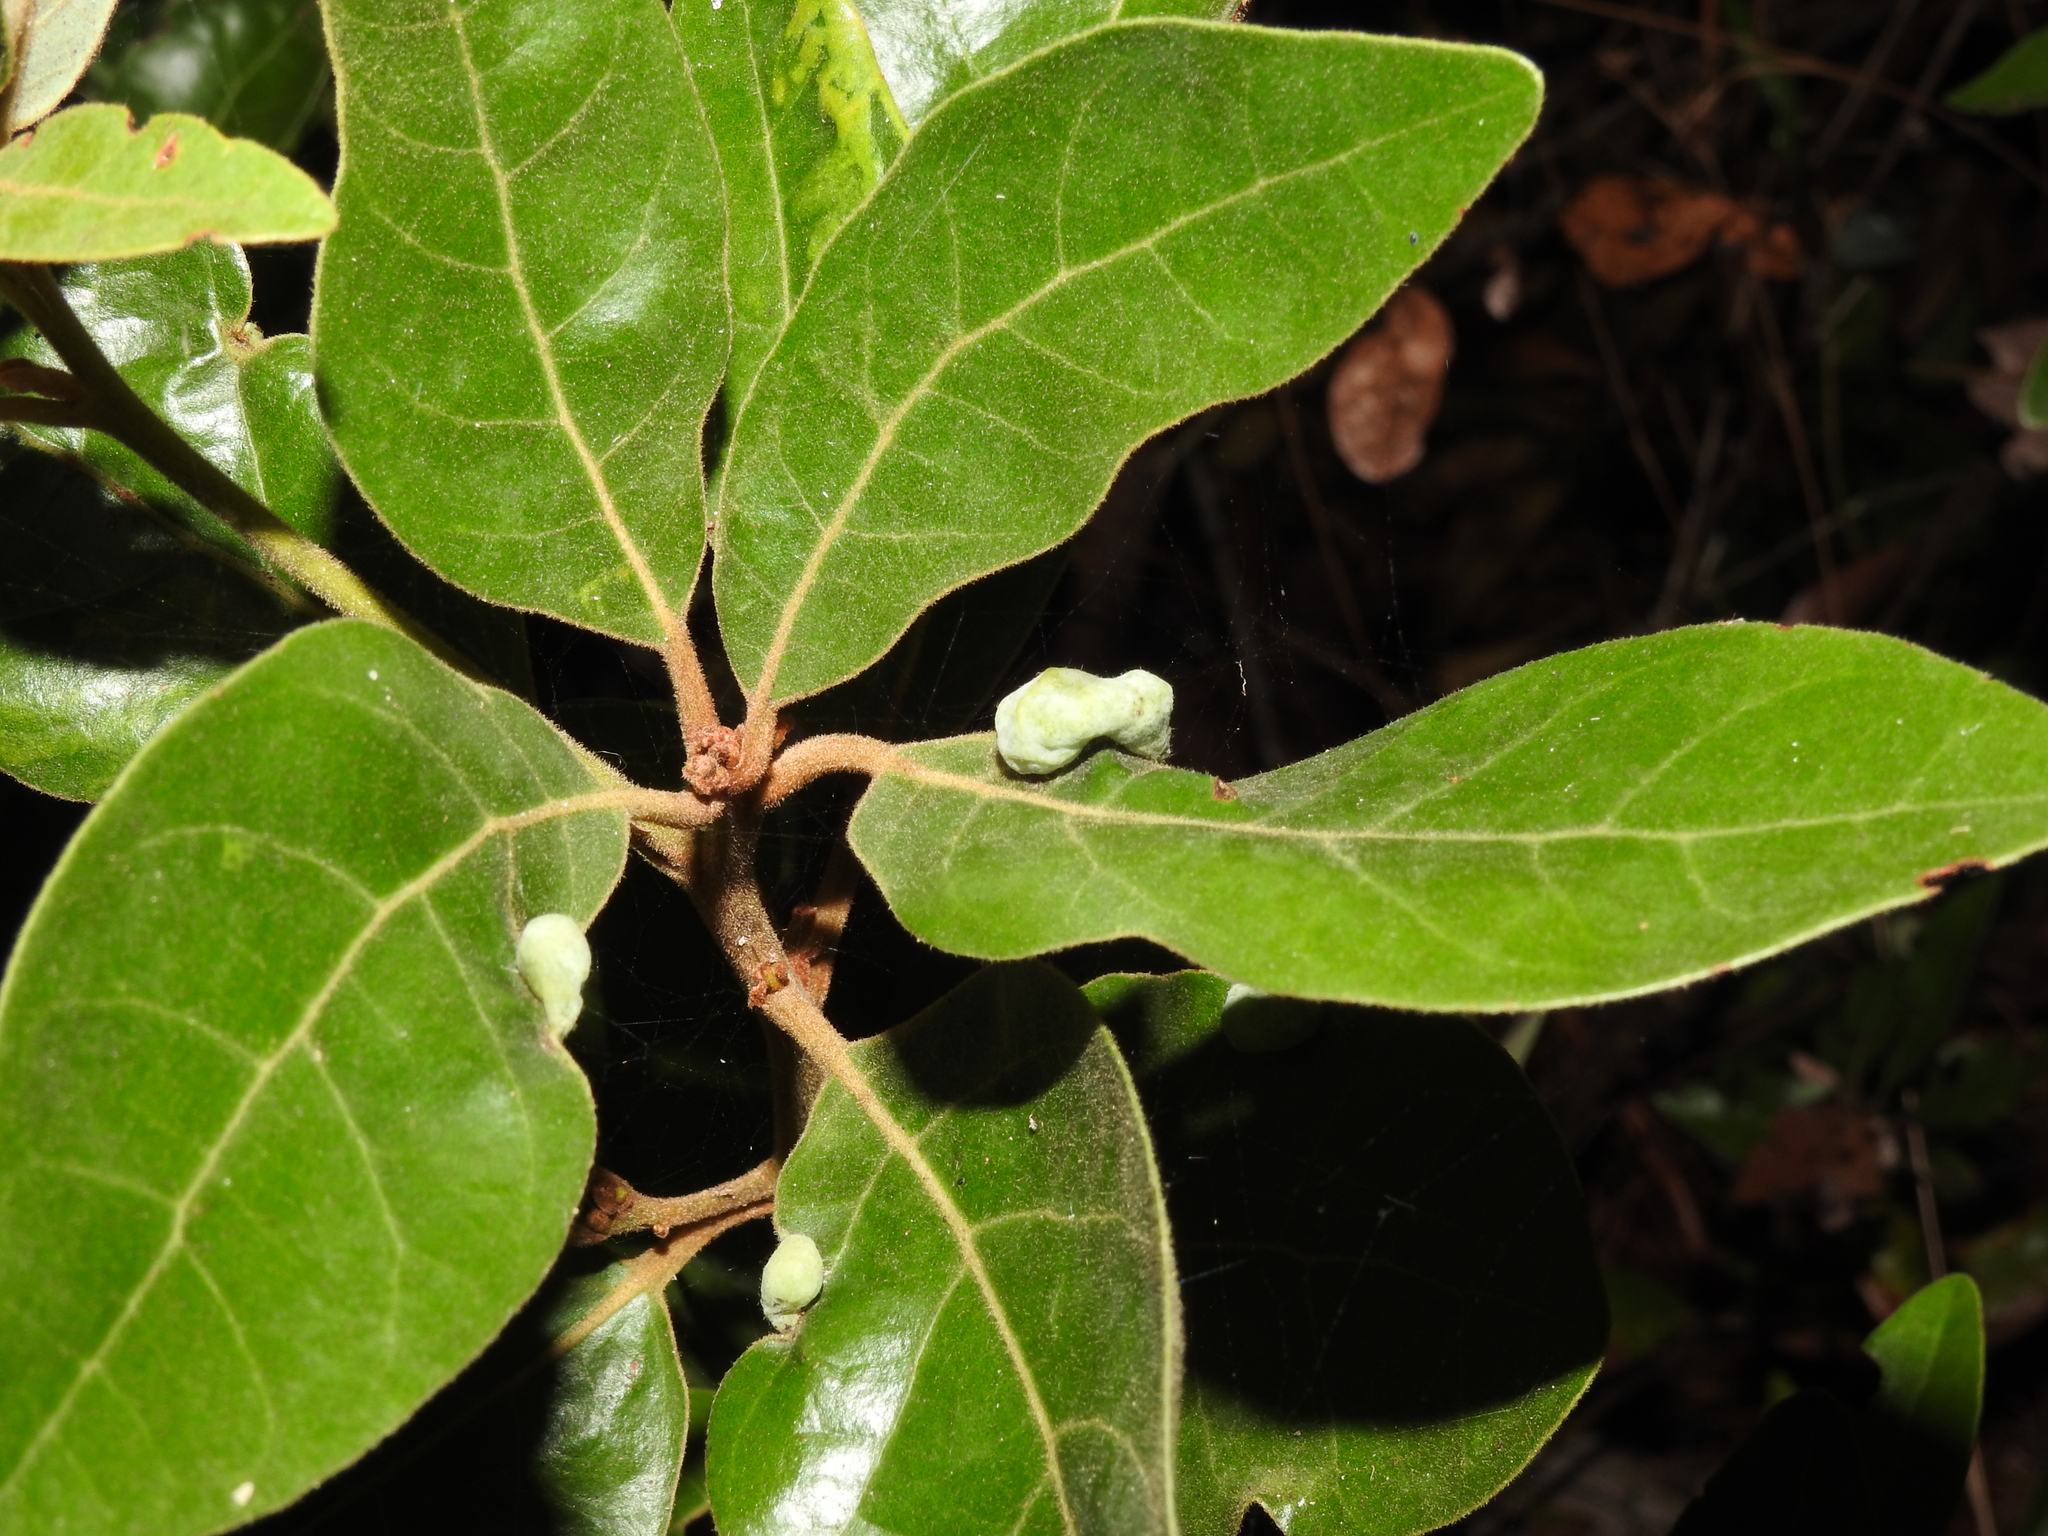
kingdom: Animalia
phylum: Arthropoda
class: Insecta
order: Hemiptera
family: Triozidae
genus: Trioza
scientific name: Trioza magnoliae
